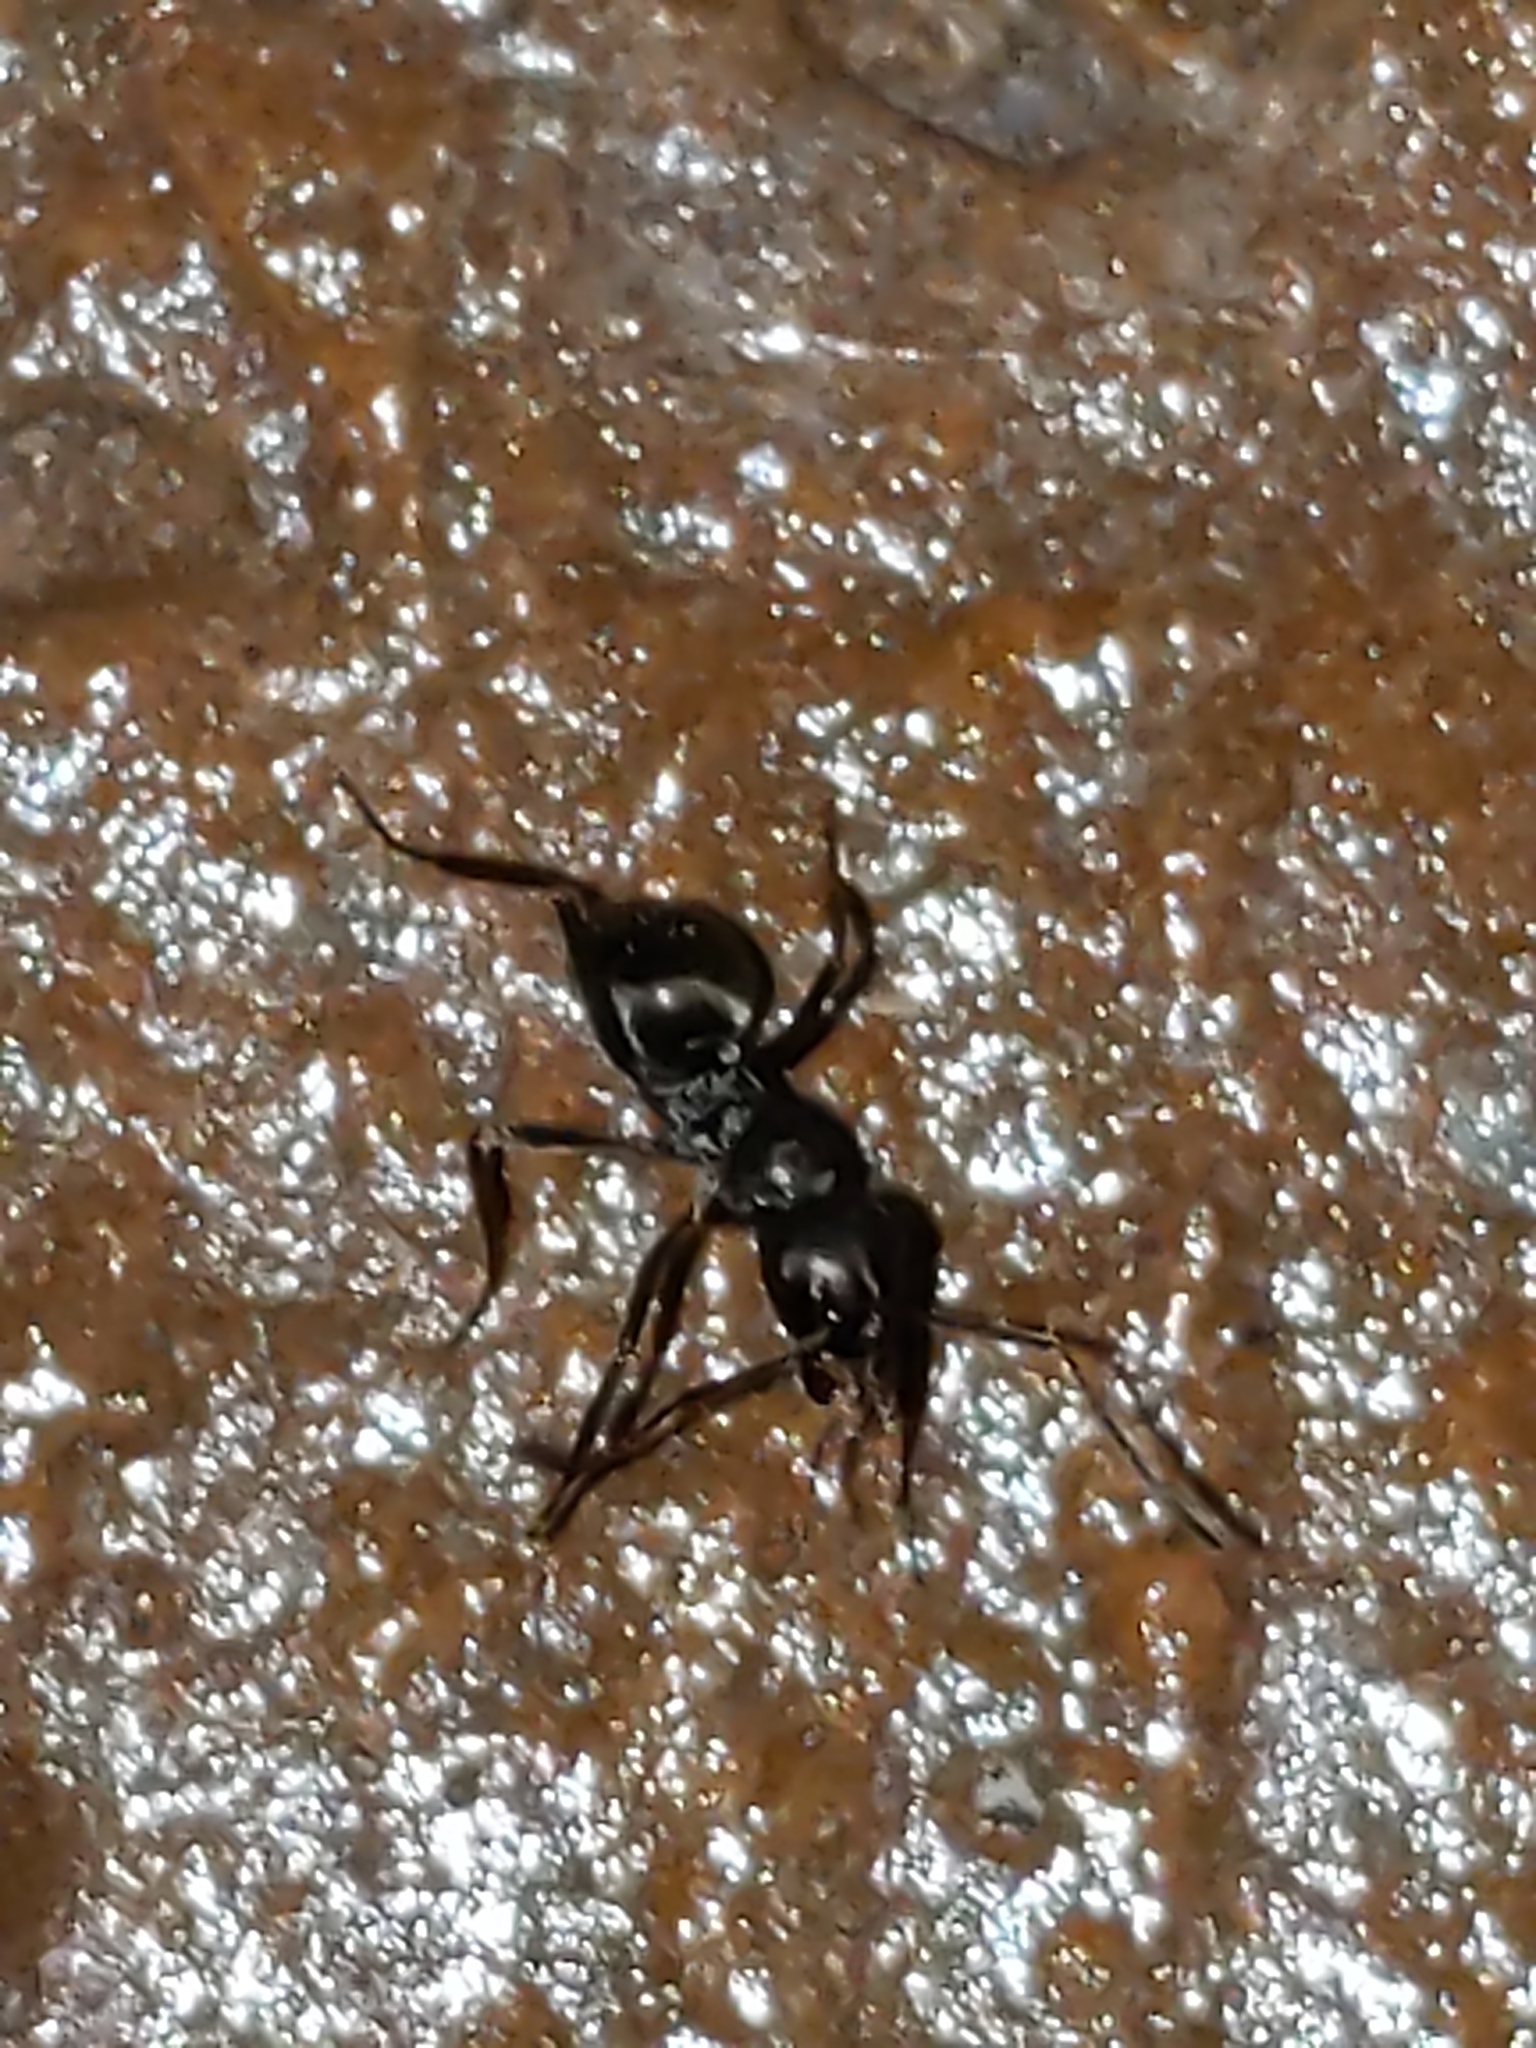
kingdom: Animalia
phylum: Arthropoda
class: Insecta
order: Hymenoptera
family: Formicidae
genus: Formica
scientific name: Formica
